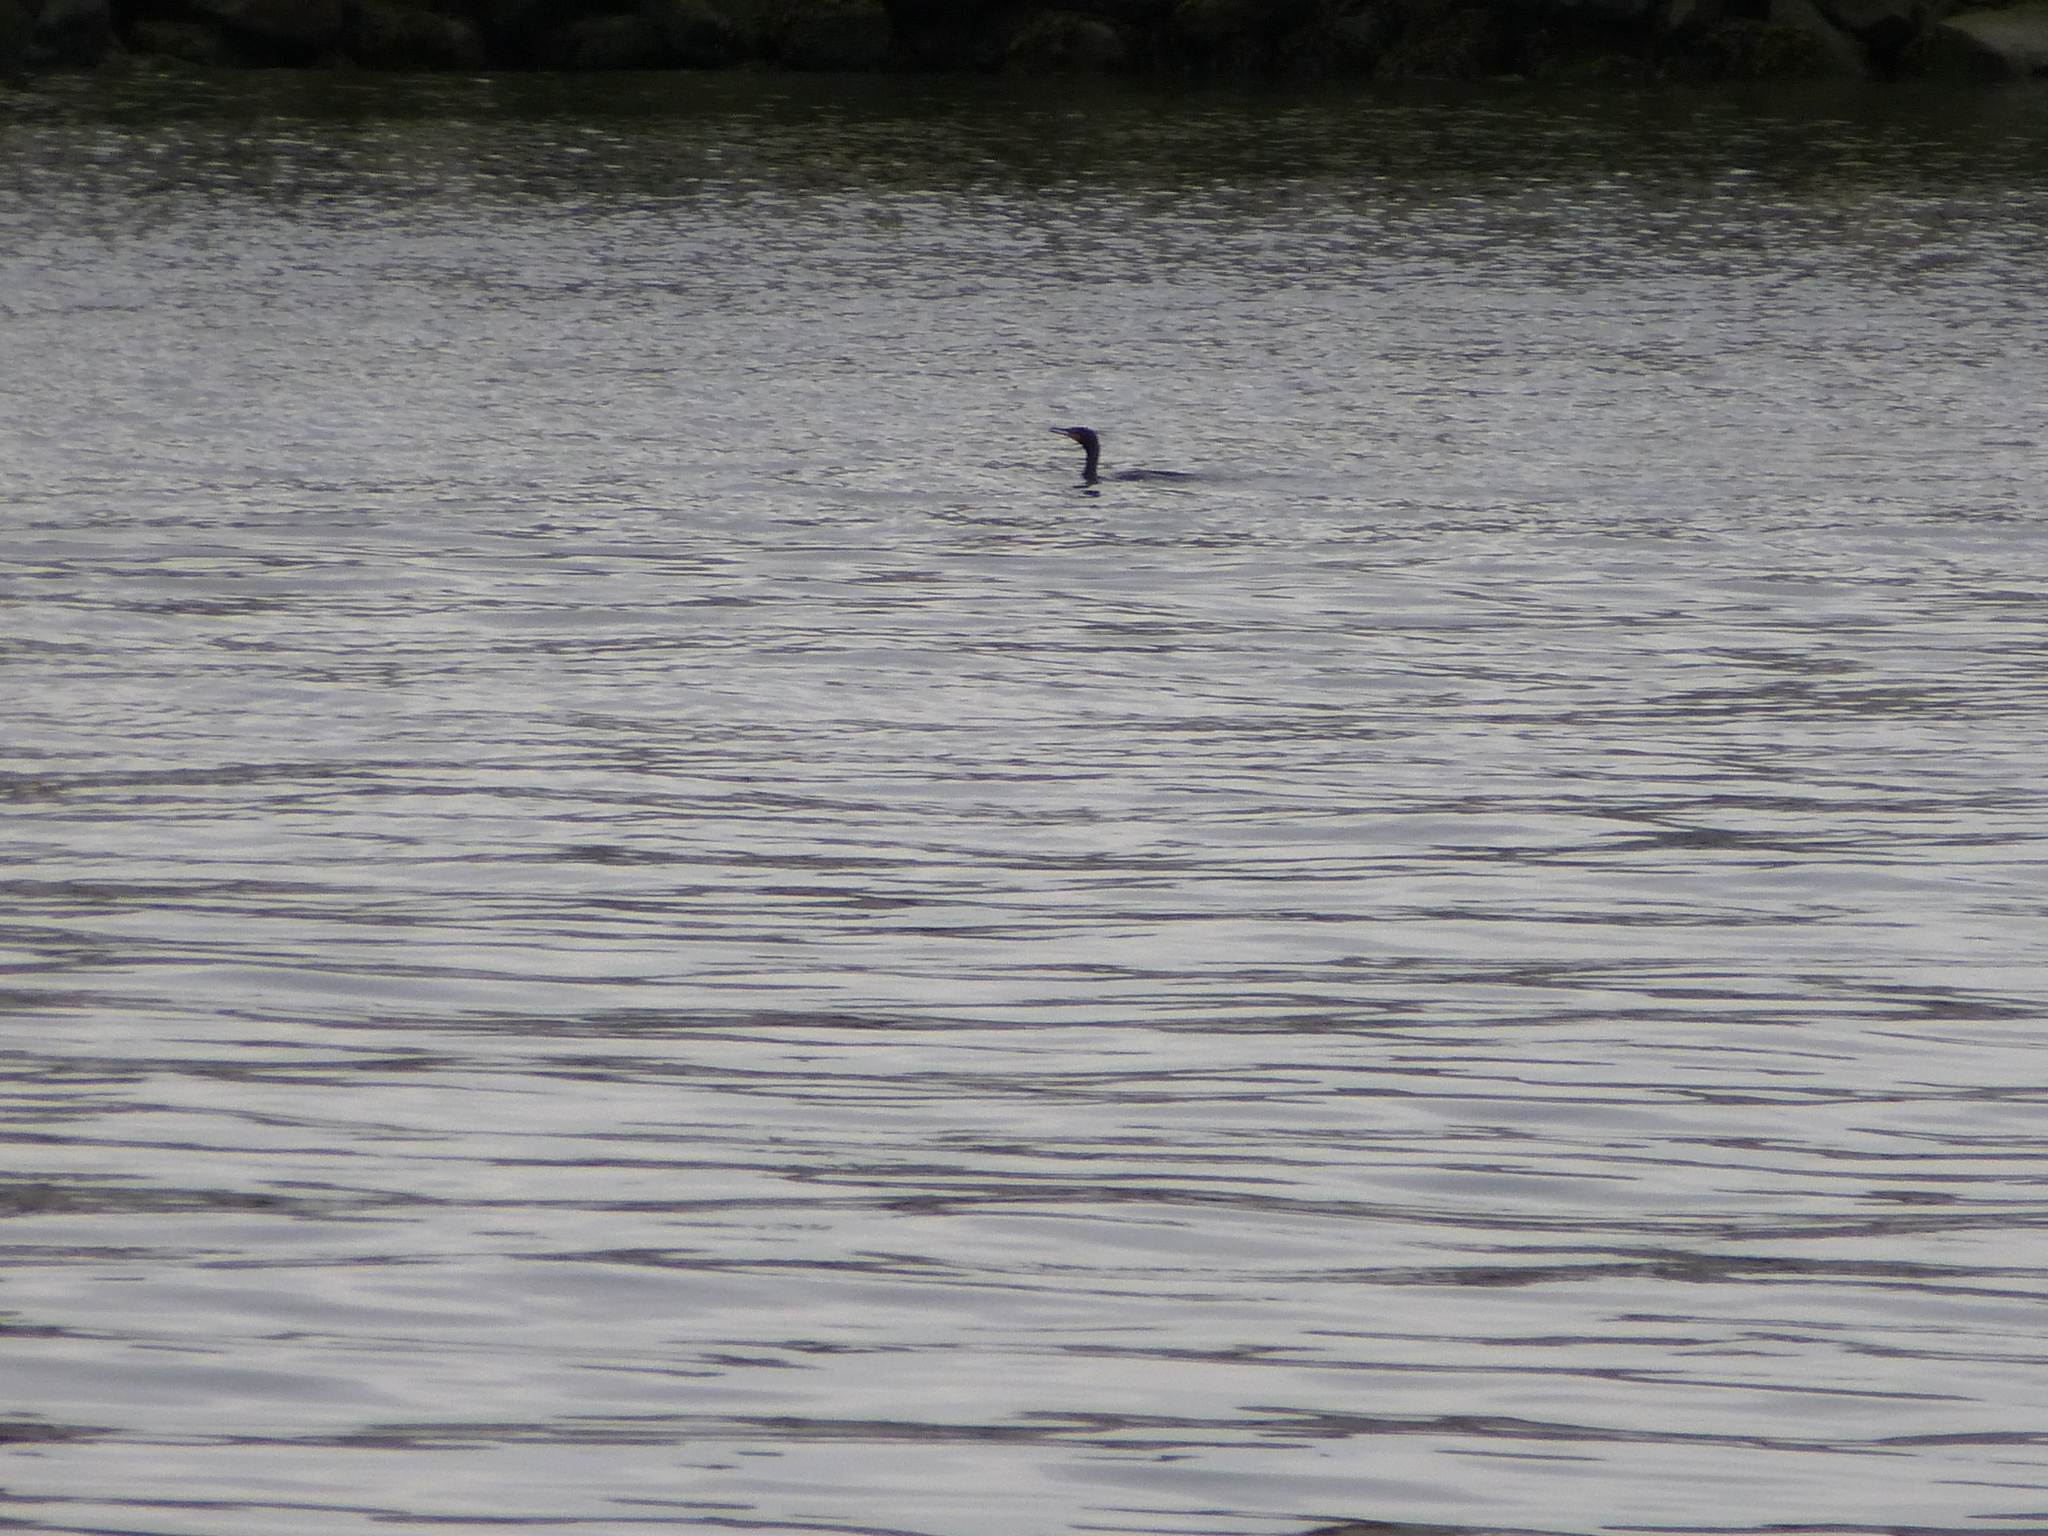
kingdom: Animalia
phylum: Chordata
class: Aves
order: Suliformes
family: Phalacrocoracidae
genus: Phalacrocorax
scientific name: Phalacrocorax auritus
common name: Double-crested cormorant
